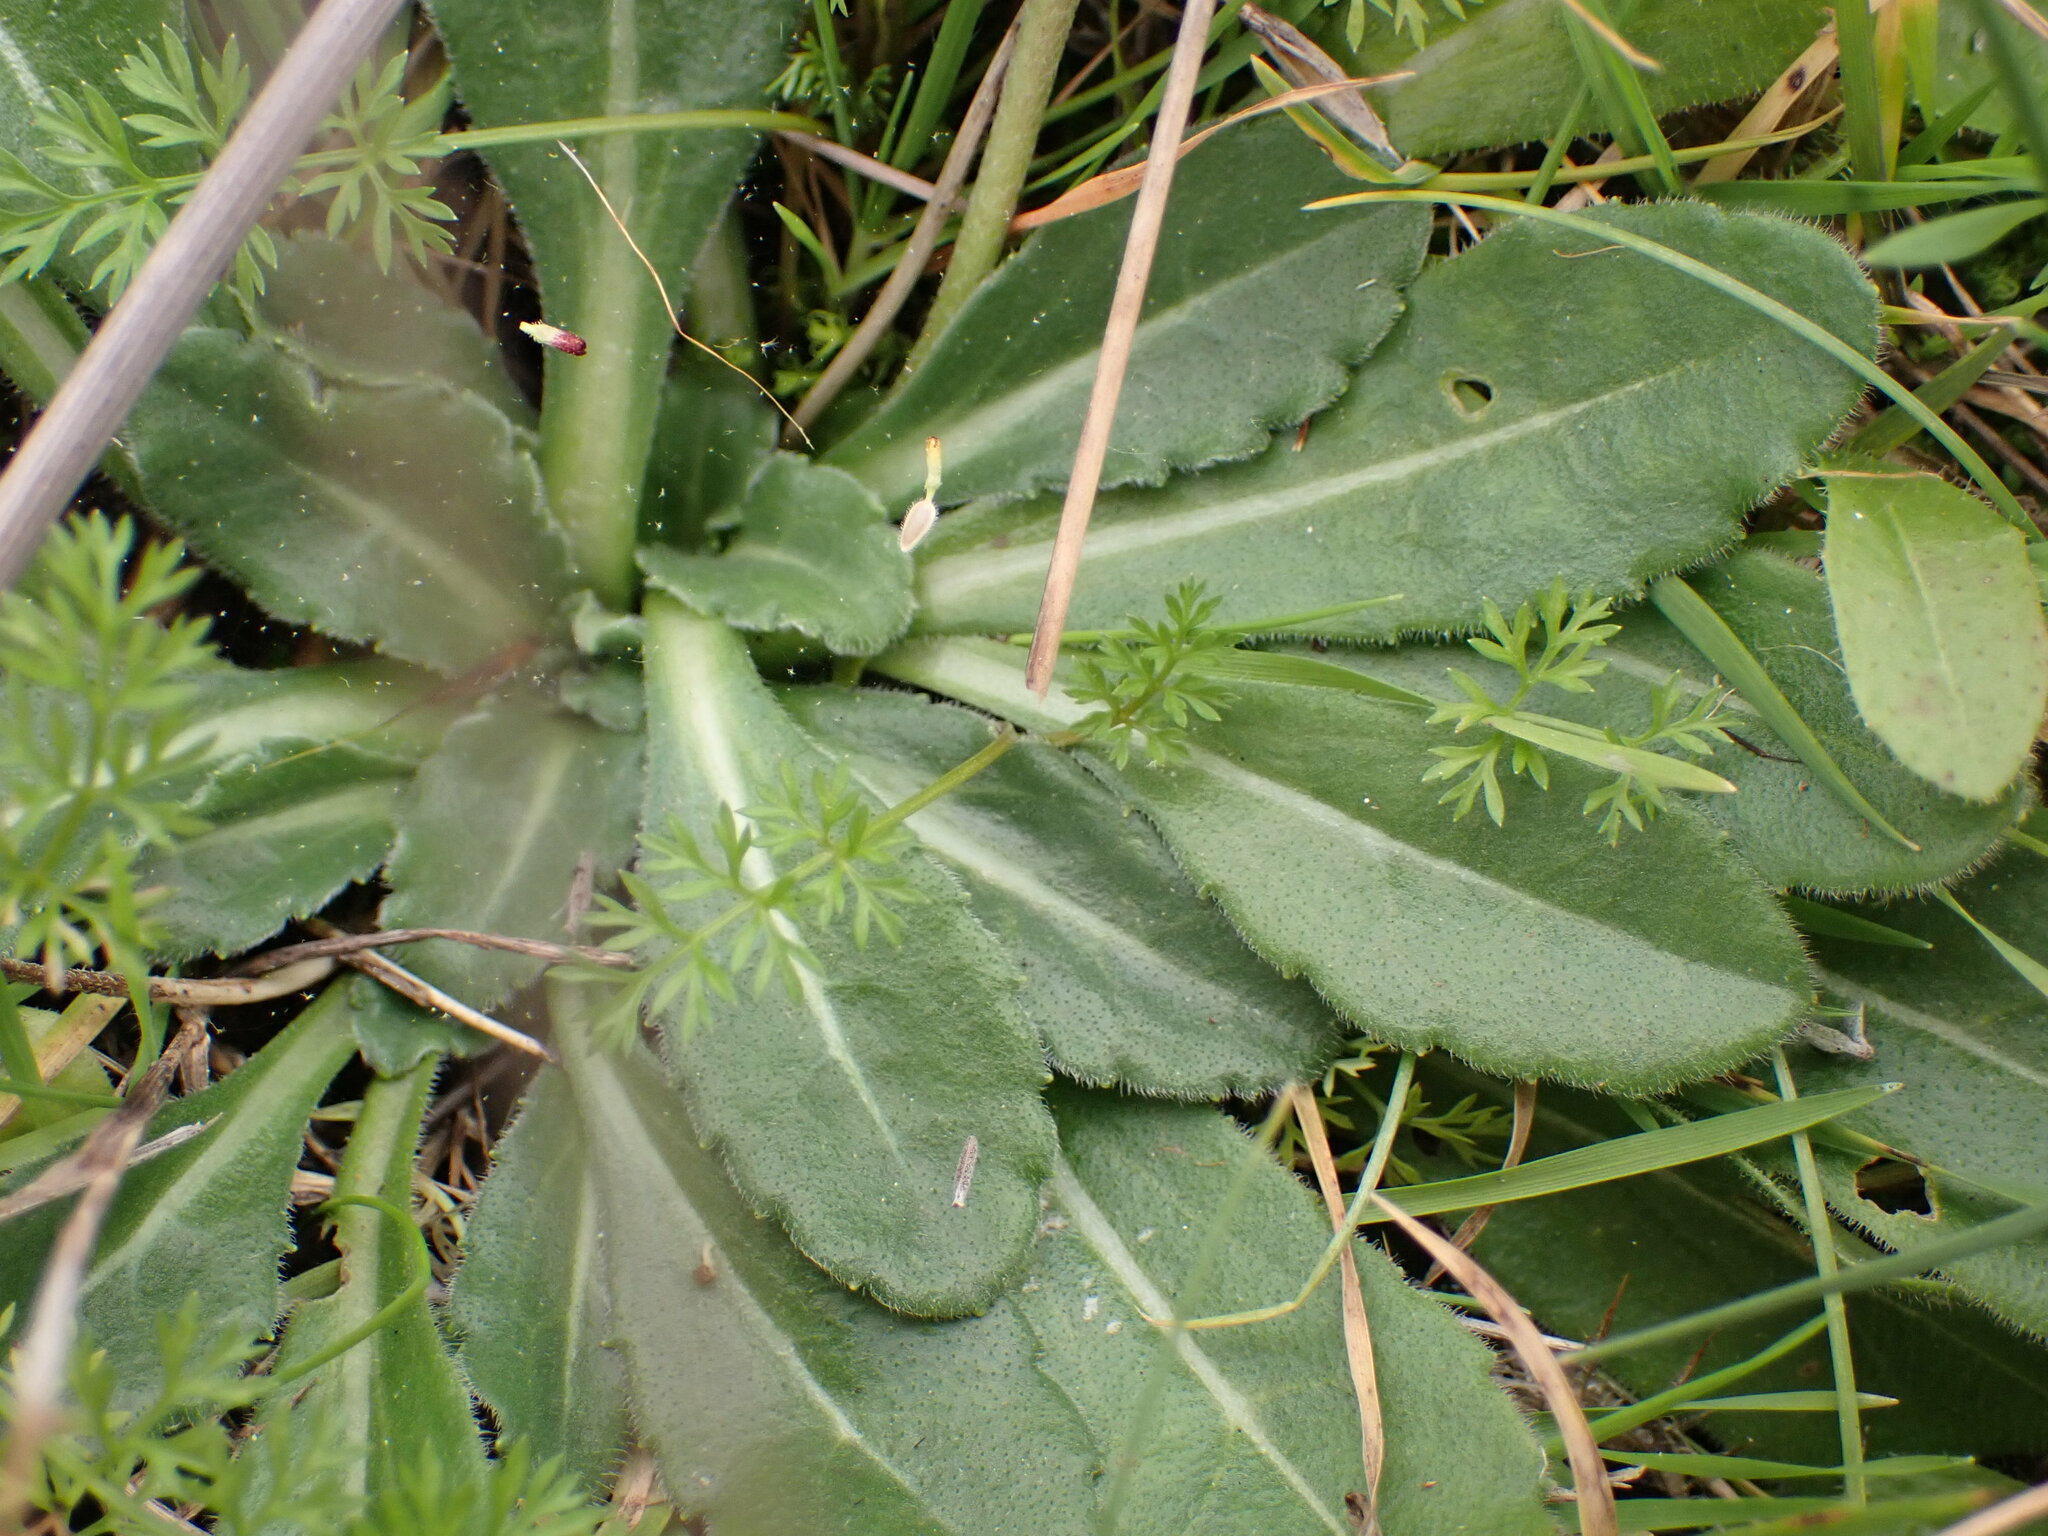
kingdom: Plantae
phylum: Tracheophyta
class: Magnoliopsida
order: Asterales
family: Asteraceae
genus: Bellis
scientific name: Bellis sylvestris
